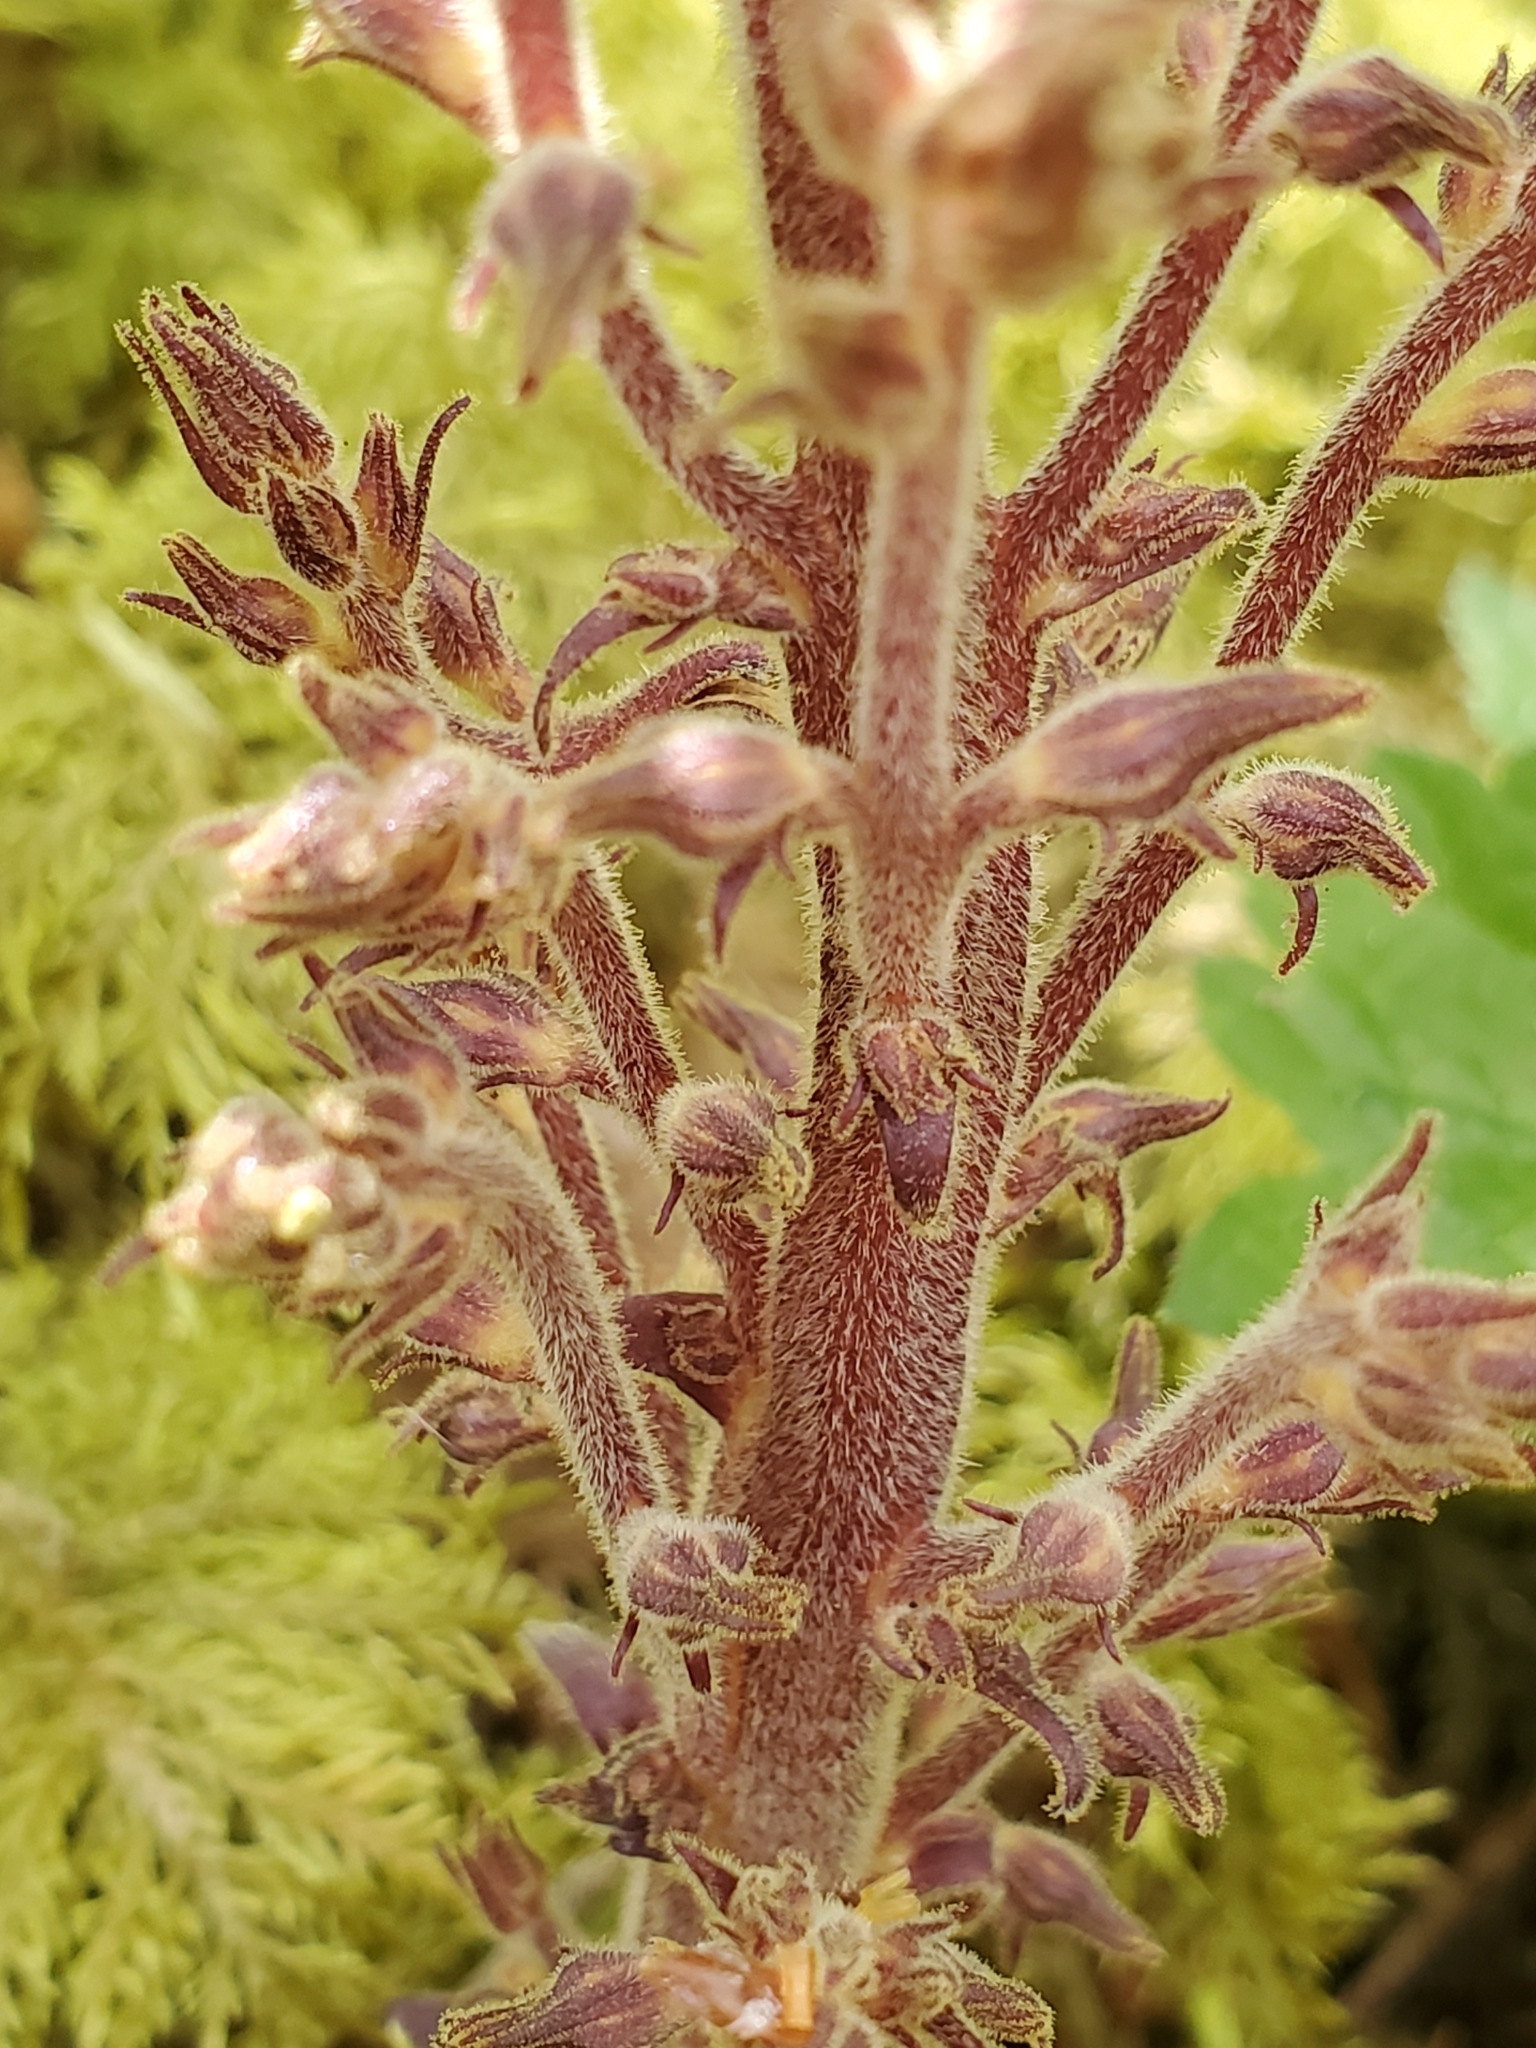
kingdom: Plantae
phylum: Tracheophyta
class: Magnoliopsida
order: Lamiales
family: Orobanchaceae
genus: Aphyllon
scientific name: Aphyllon pinorum
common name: Conifer broomrape
